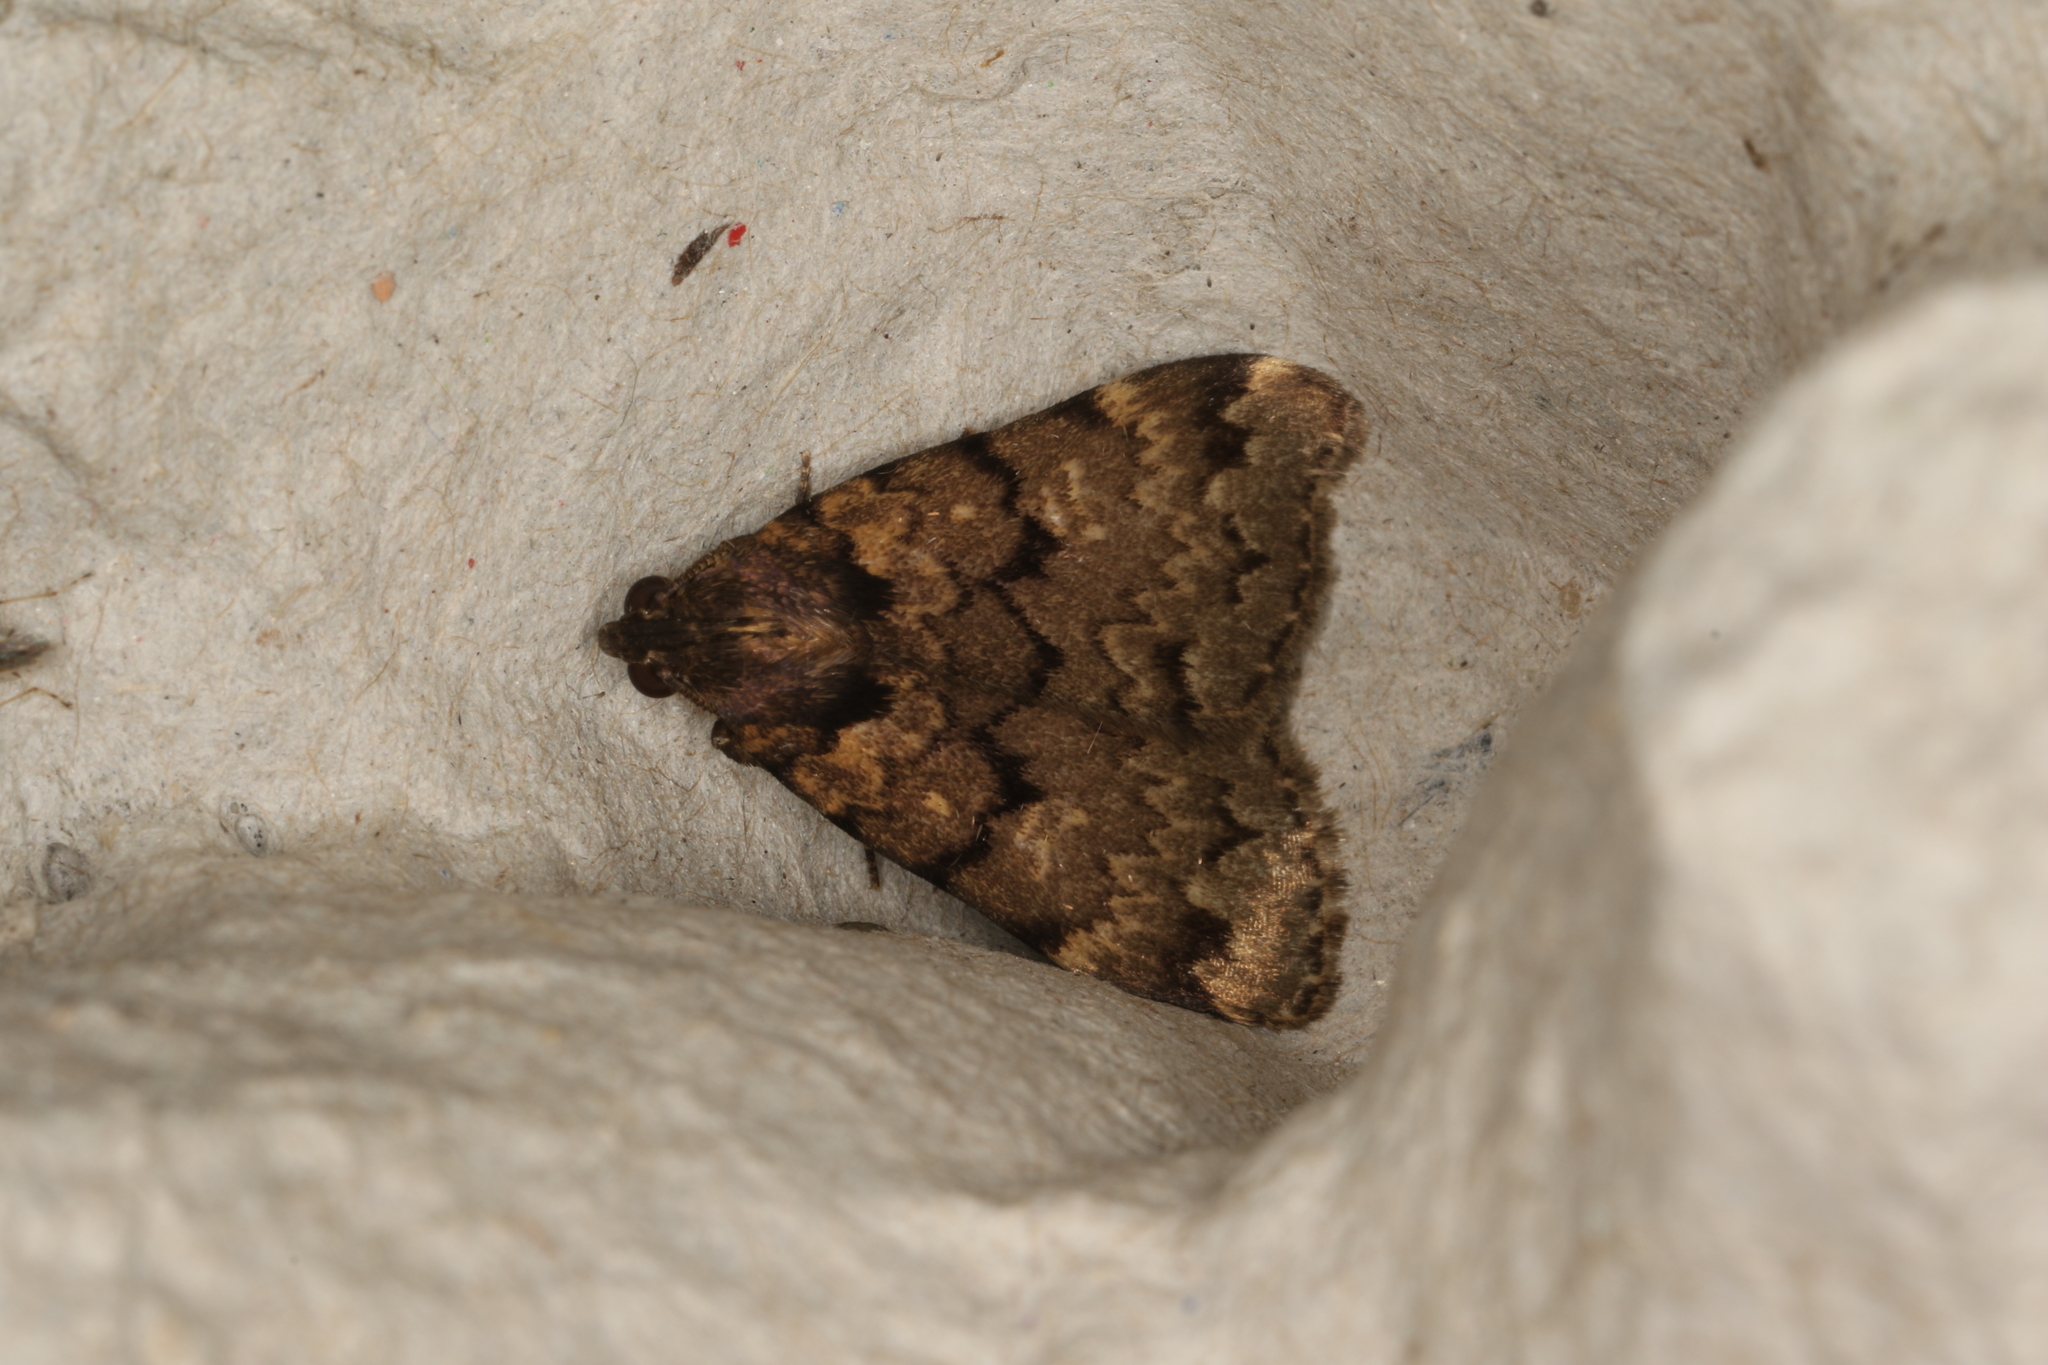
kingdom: Animalia
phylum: Arthropoda
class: Insecta
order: Lepidoptera
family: Erebidae
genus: Mormoscopa
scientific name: Mormoscopa phricozona
